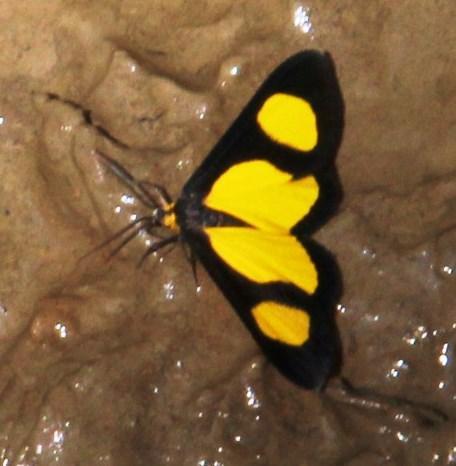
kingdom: Animalia
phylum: Arthropoda
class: Insecta
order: Lepidoptera
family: Geometridae
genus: Cyllopoda
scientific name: Cyllopoda jatropharia
